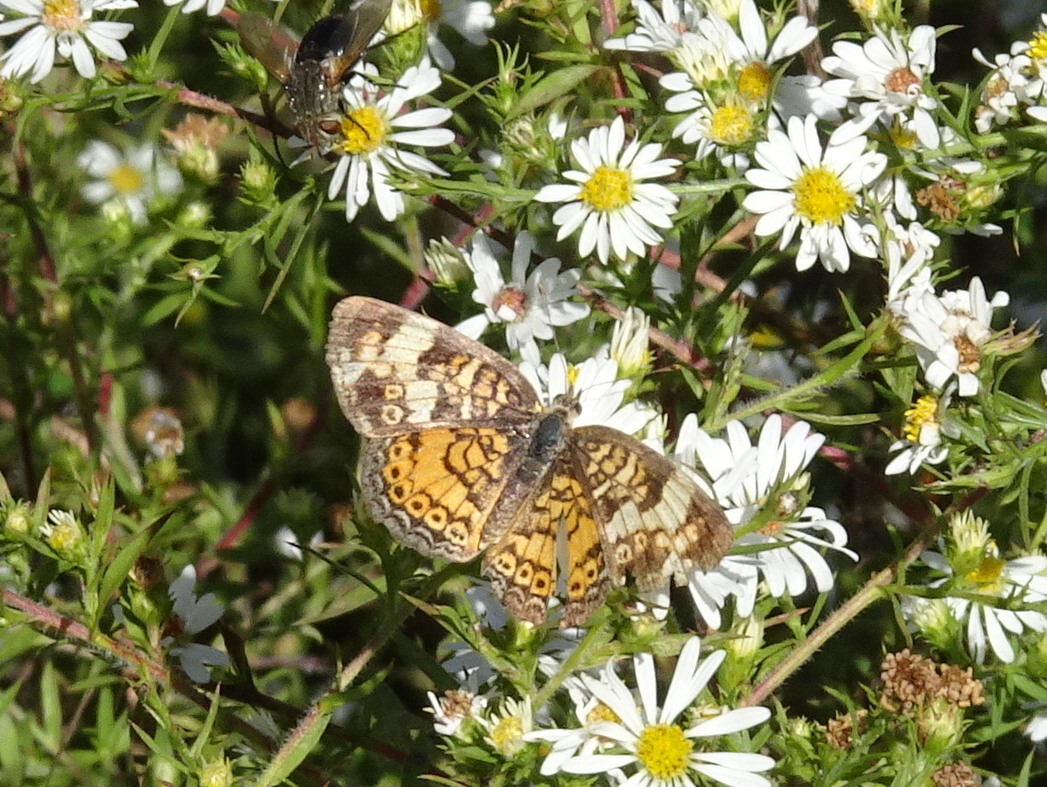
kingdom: Animalia
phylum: Arthropoda
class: Insecta
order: Lepidoptera
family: Nymphalidae
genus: Phyciodes
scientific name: Phyciodes tharos
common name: Pearl crescent
